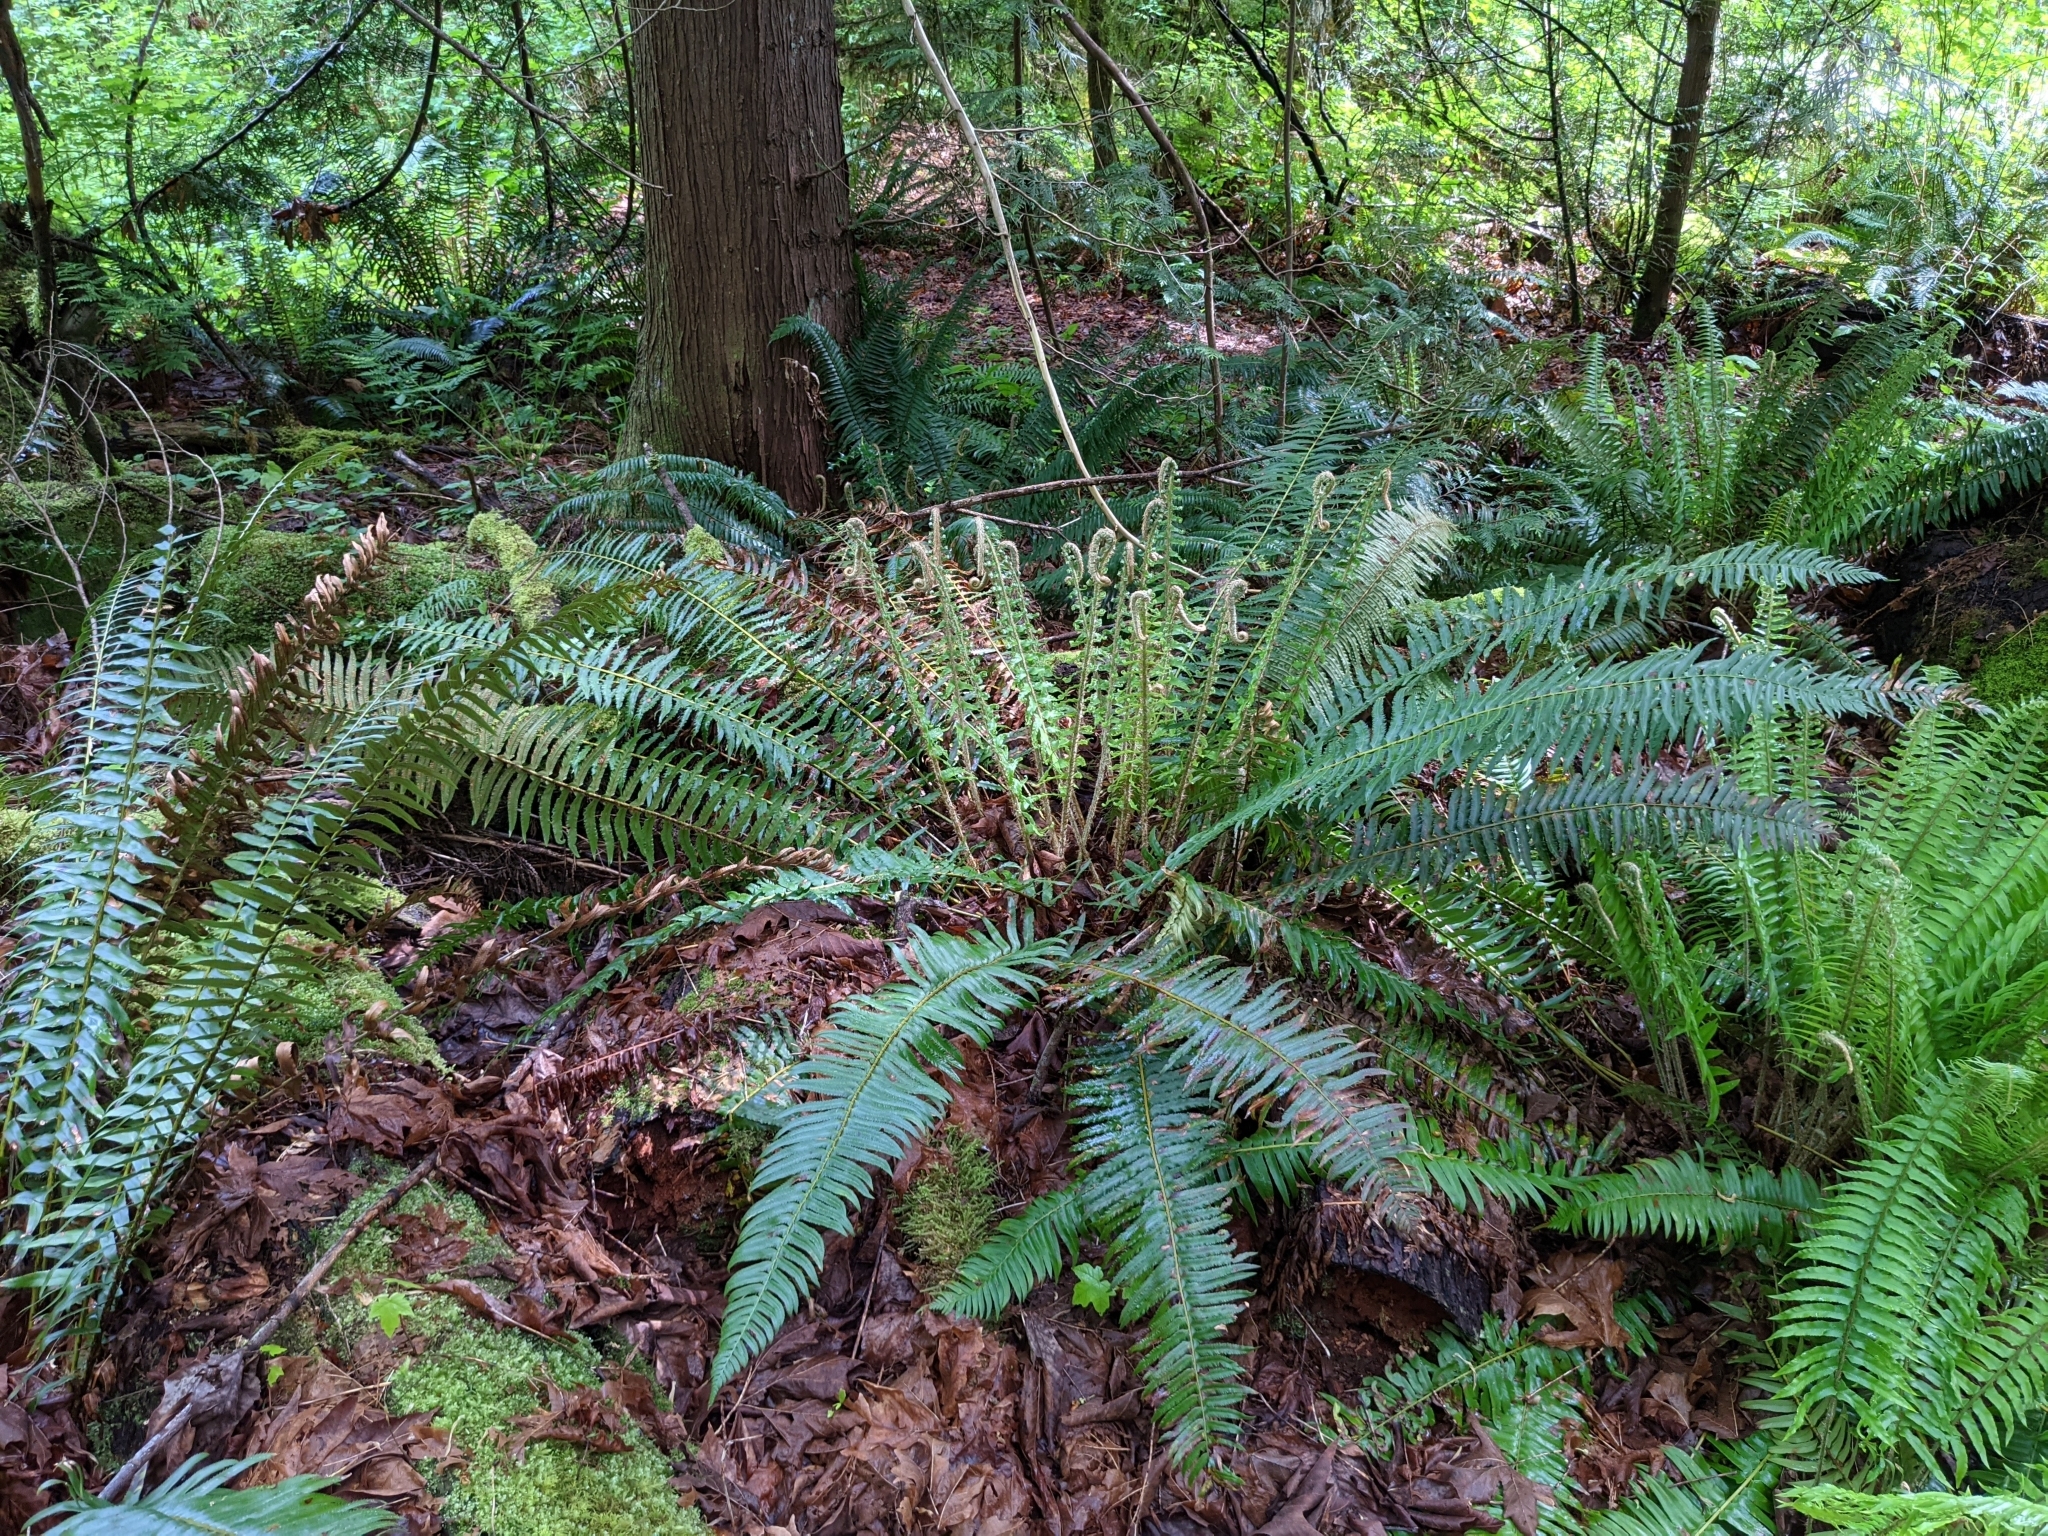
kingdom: Plantae
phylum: Tracheophyta
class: Polypodiopsida
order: Polypodiales
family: Dryopteridaceae
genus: Polystichum
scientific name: Polystichum munitum
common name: Western sword-fern
